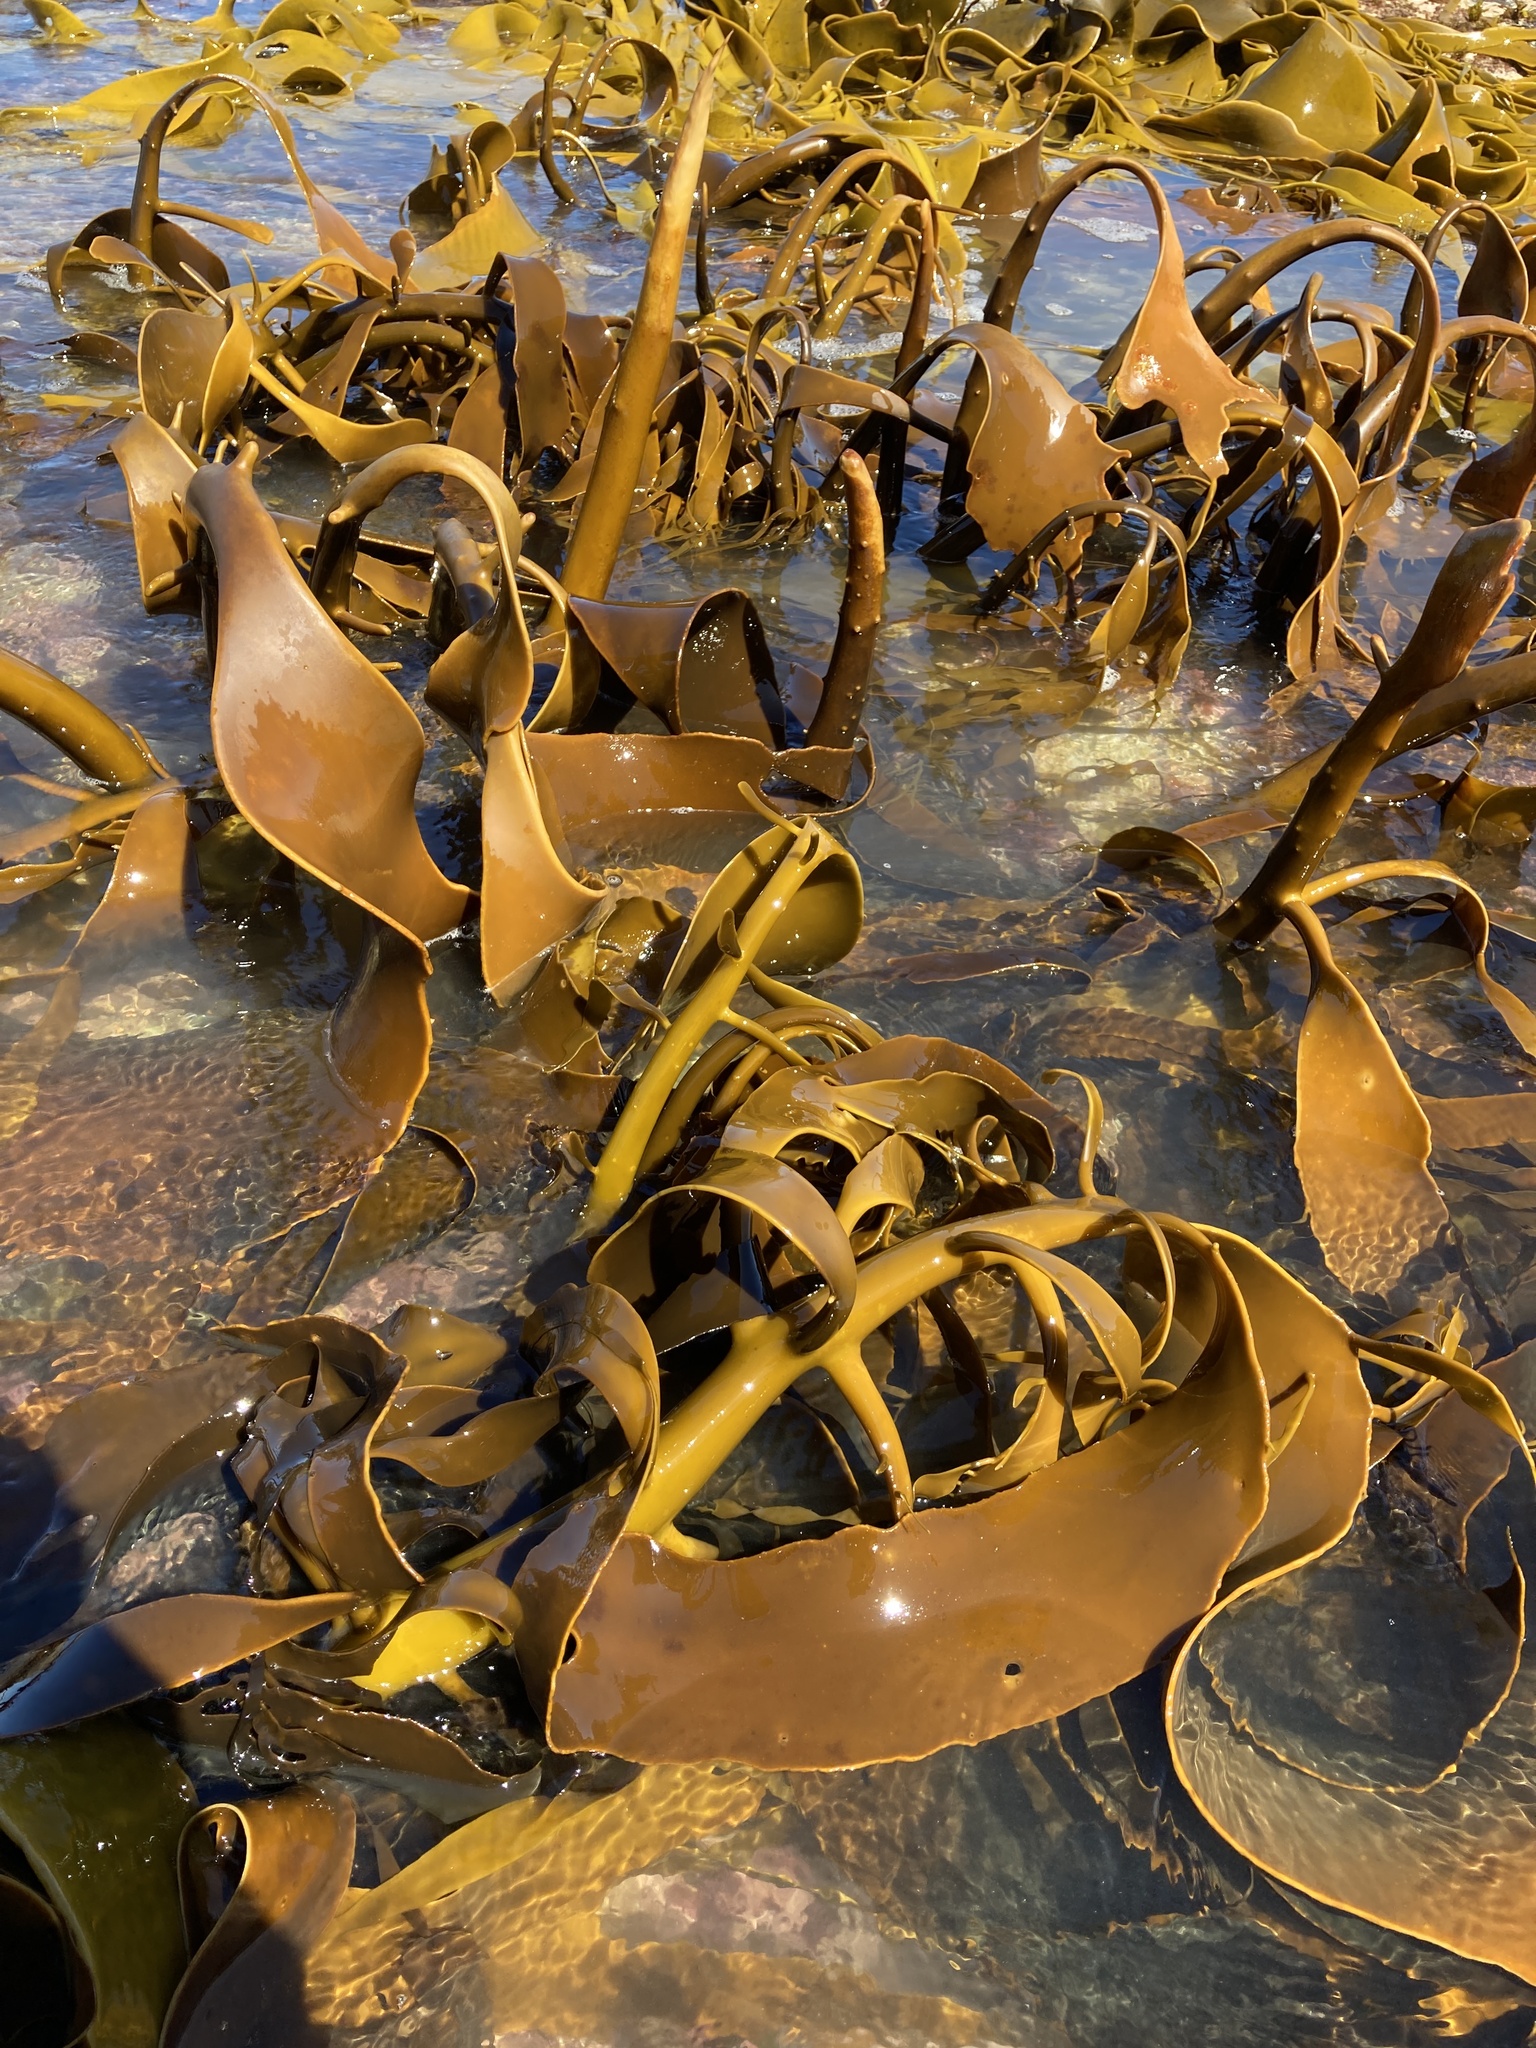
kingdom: Chromista
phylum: Ochrophyta
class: Phaeophyceae
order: Fucales
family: Durvillaeaceae
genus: Durvillaea
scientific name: Durvillaea willana
